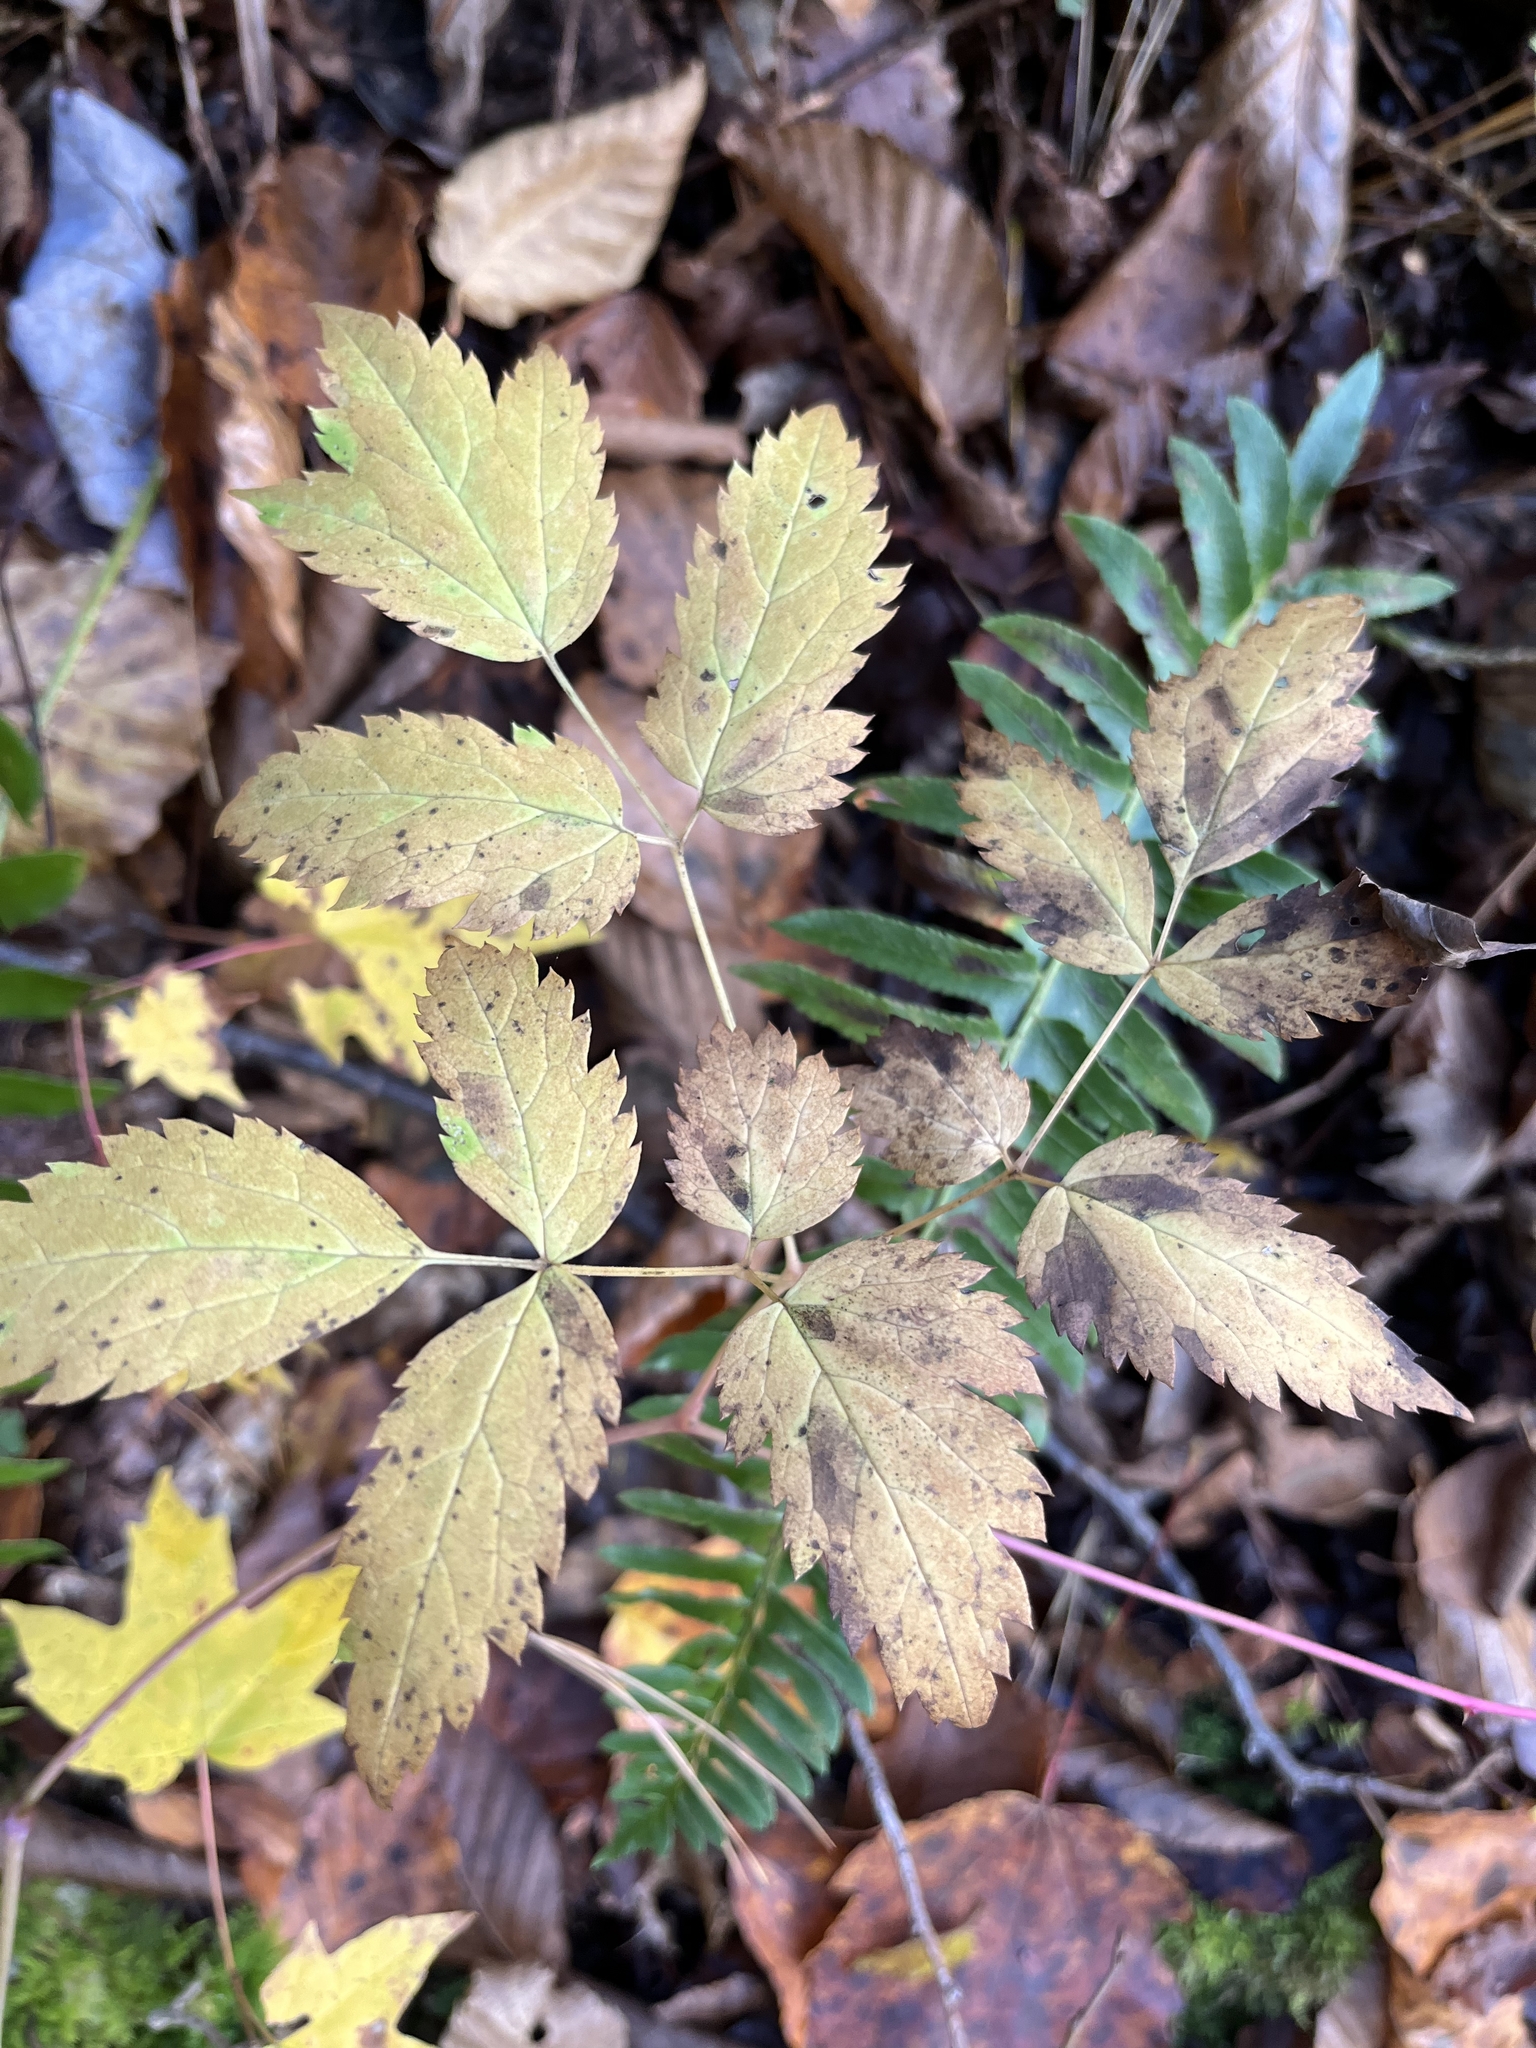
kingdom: Plantae
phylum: Tracheophyta
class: Magnoliopsida
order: Ranunculales
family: Ranunculaceae
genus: Actaea
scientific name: Actaea pachypoda
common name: Doll's-eyes
